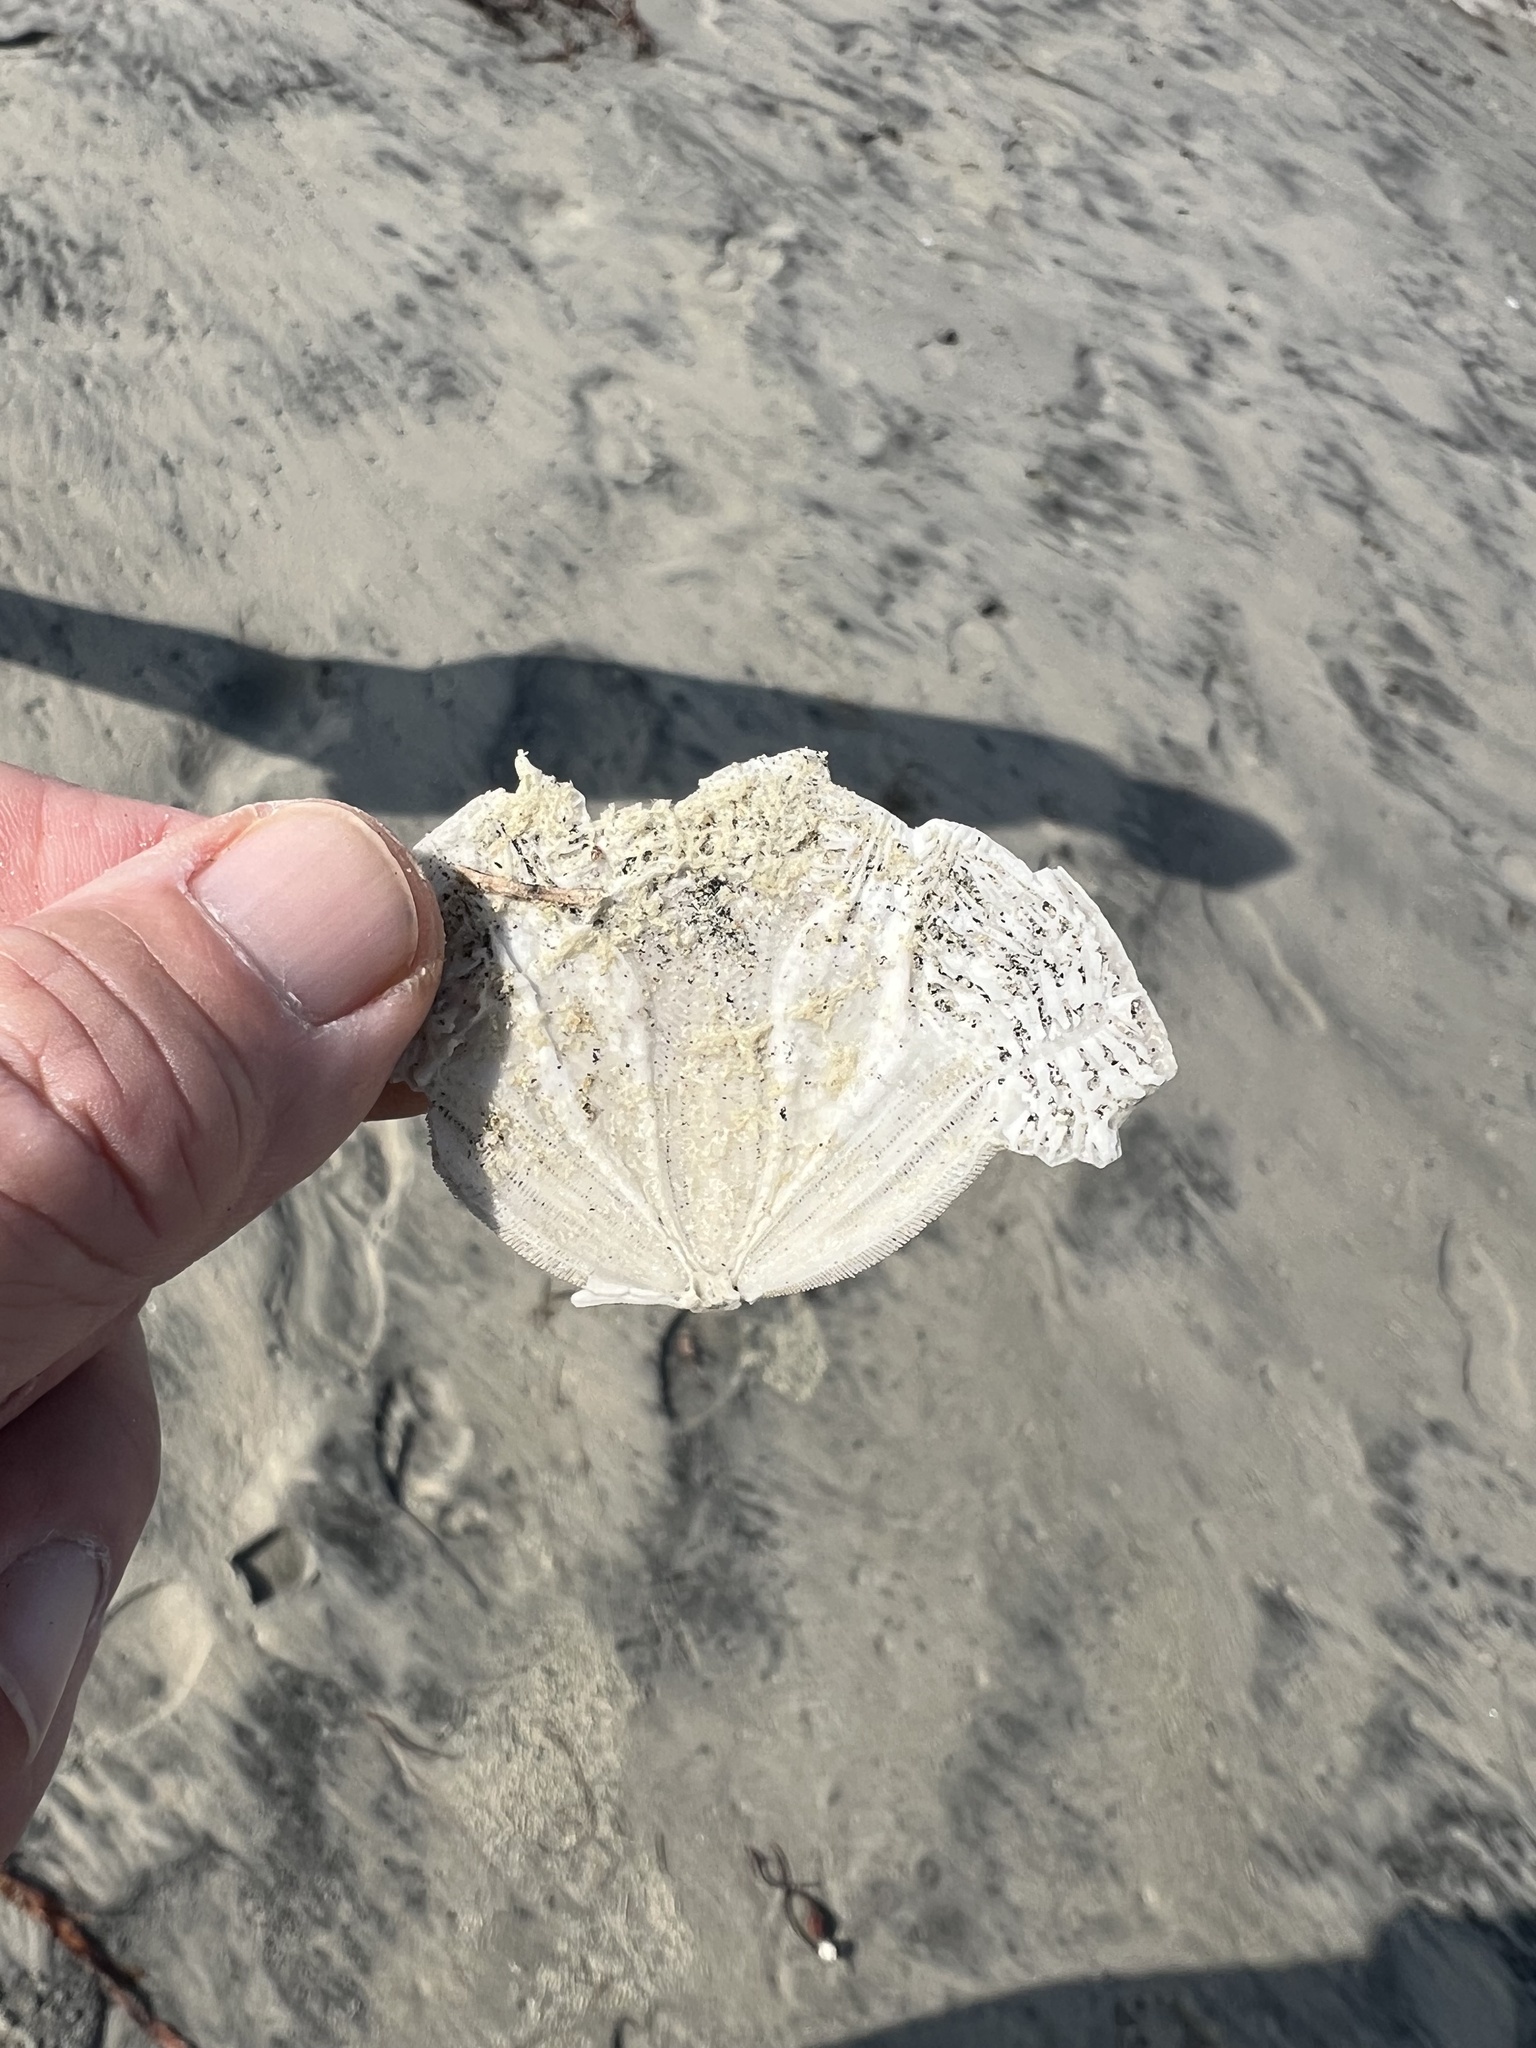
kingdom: Animalia
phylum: Echinodermata
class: Echinoidea
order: Echinolampadacea
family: Dendrasteridae
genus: Dendraster
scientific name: Dendraster excentricus
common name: Eccentric sand dollar sea urchin
